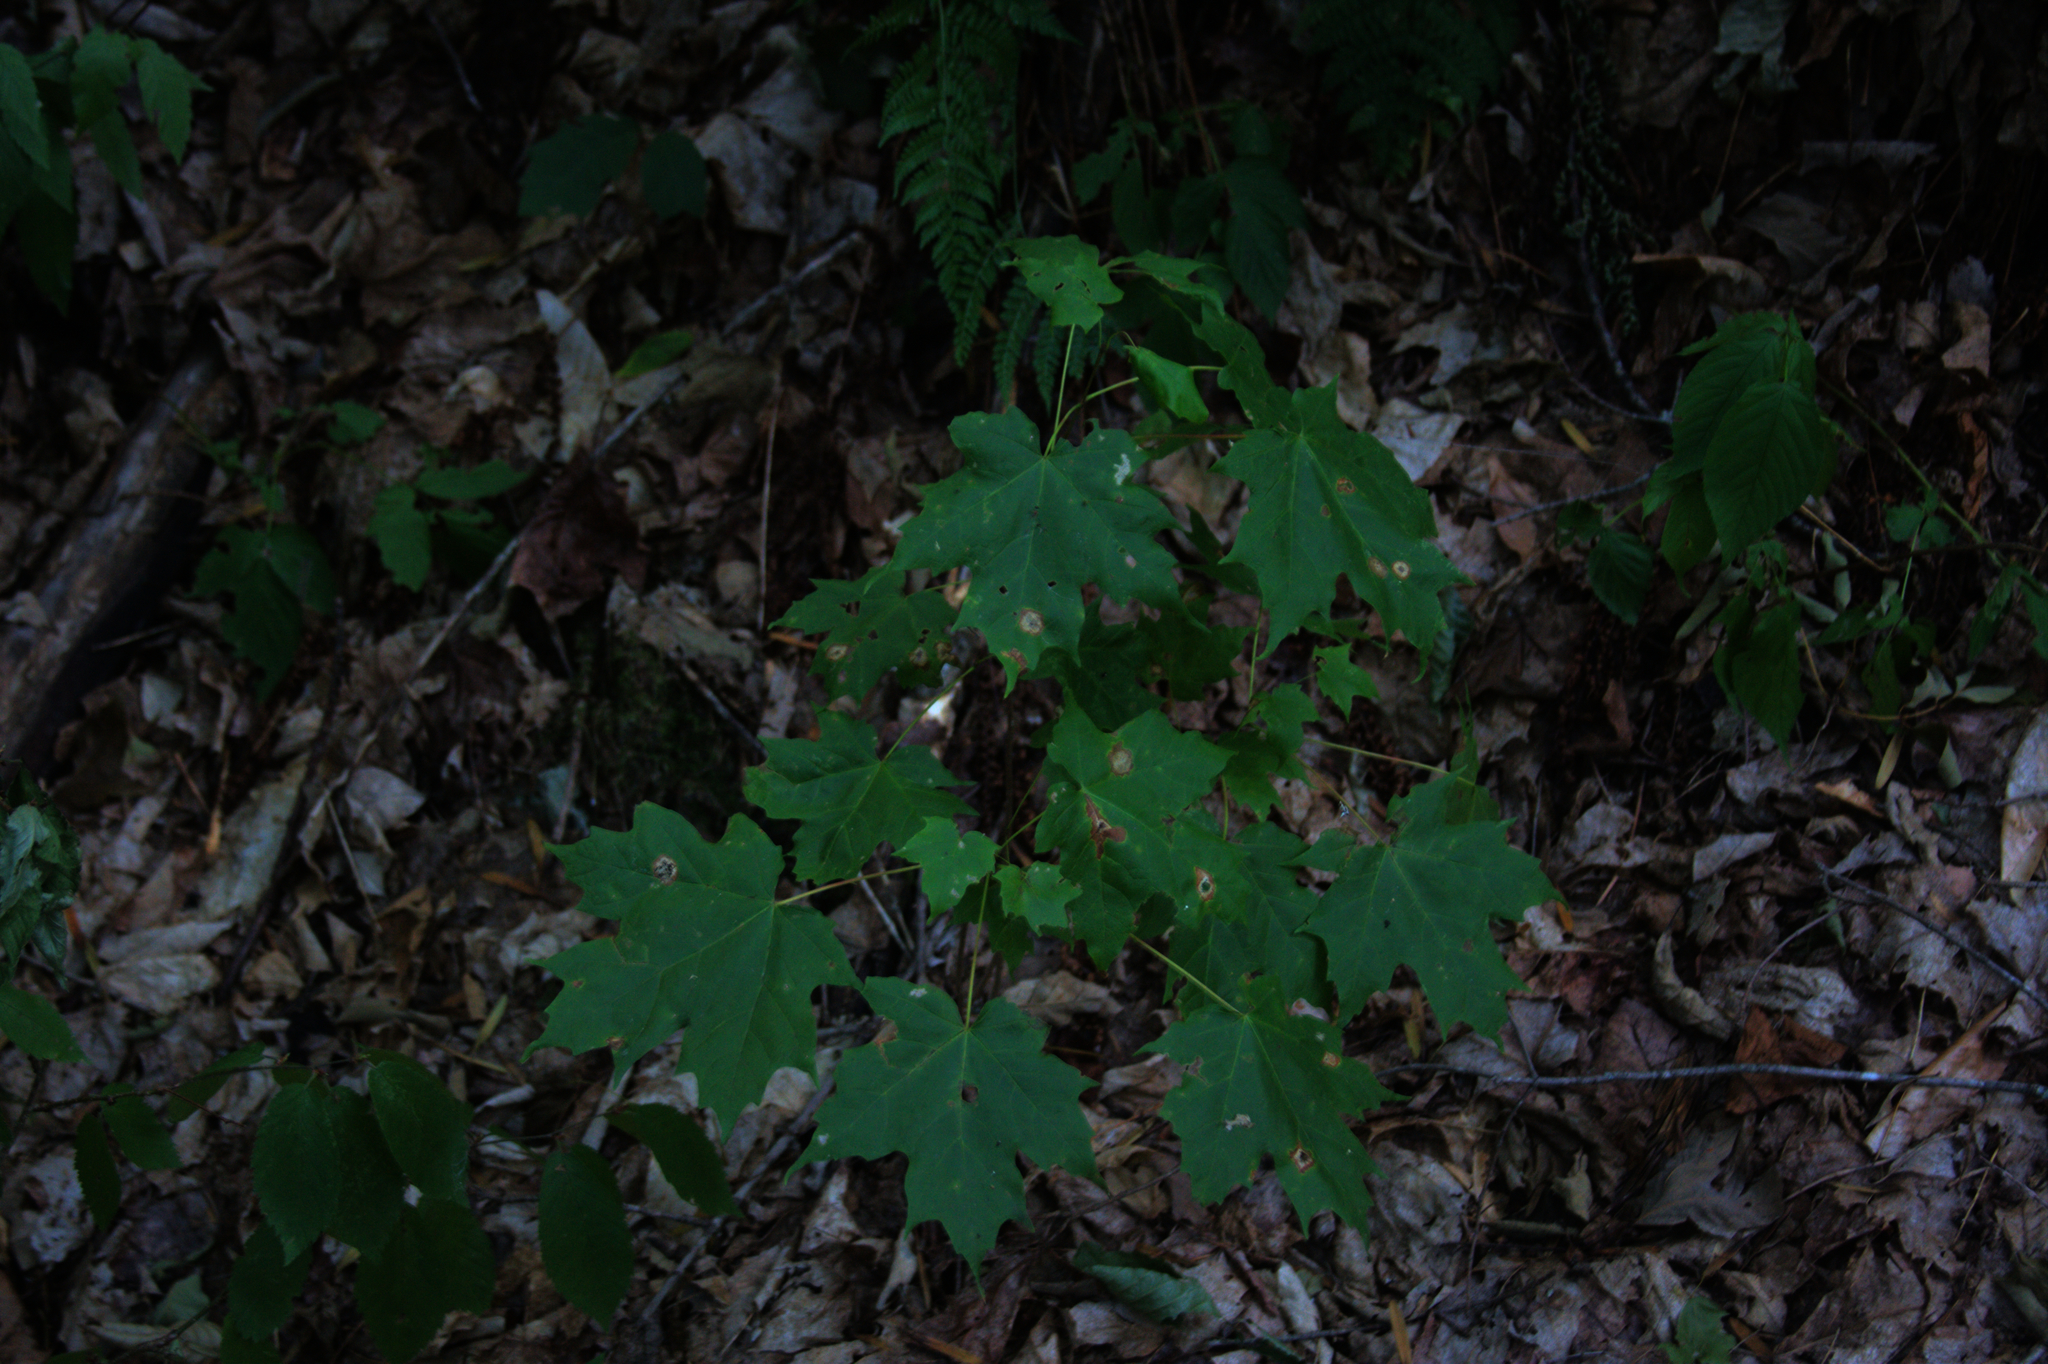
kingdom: Plantae
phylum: Tracheophyta
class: Magnoliopsida
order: Sapindales
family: Sapindaceae
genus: Acer
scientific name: Acer saccharum
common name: Sugar maple
